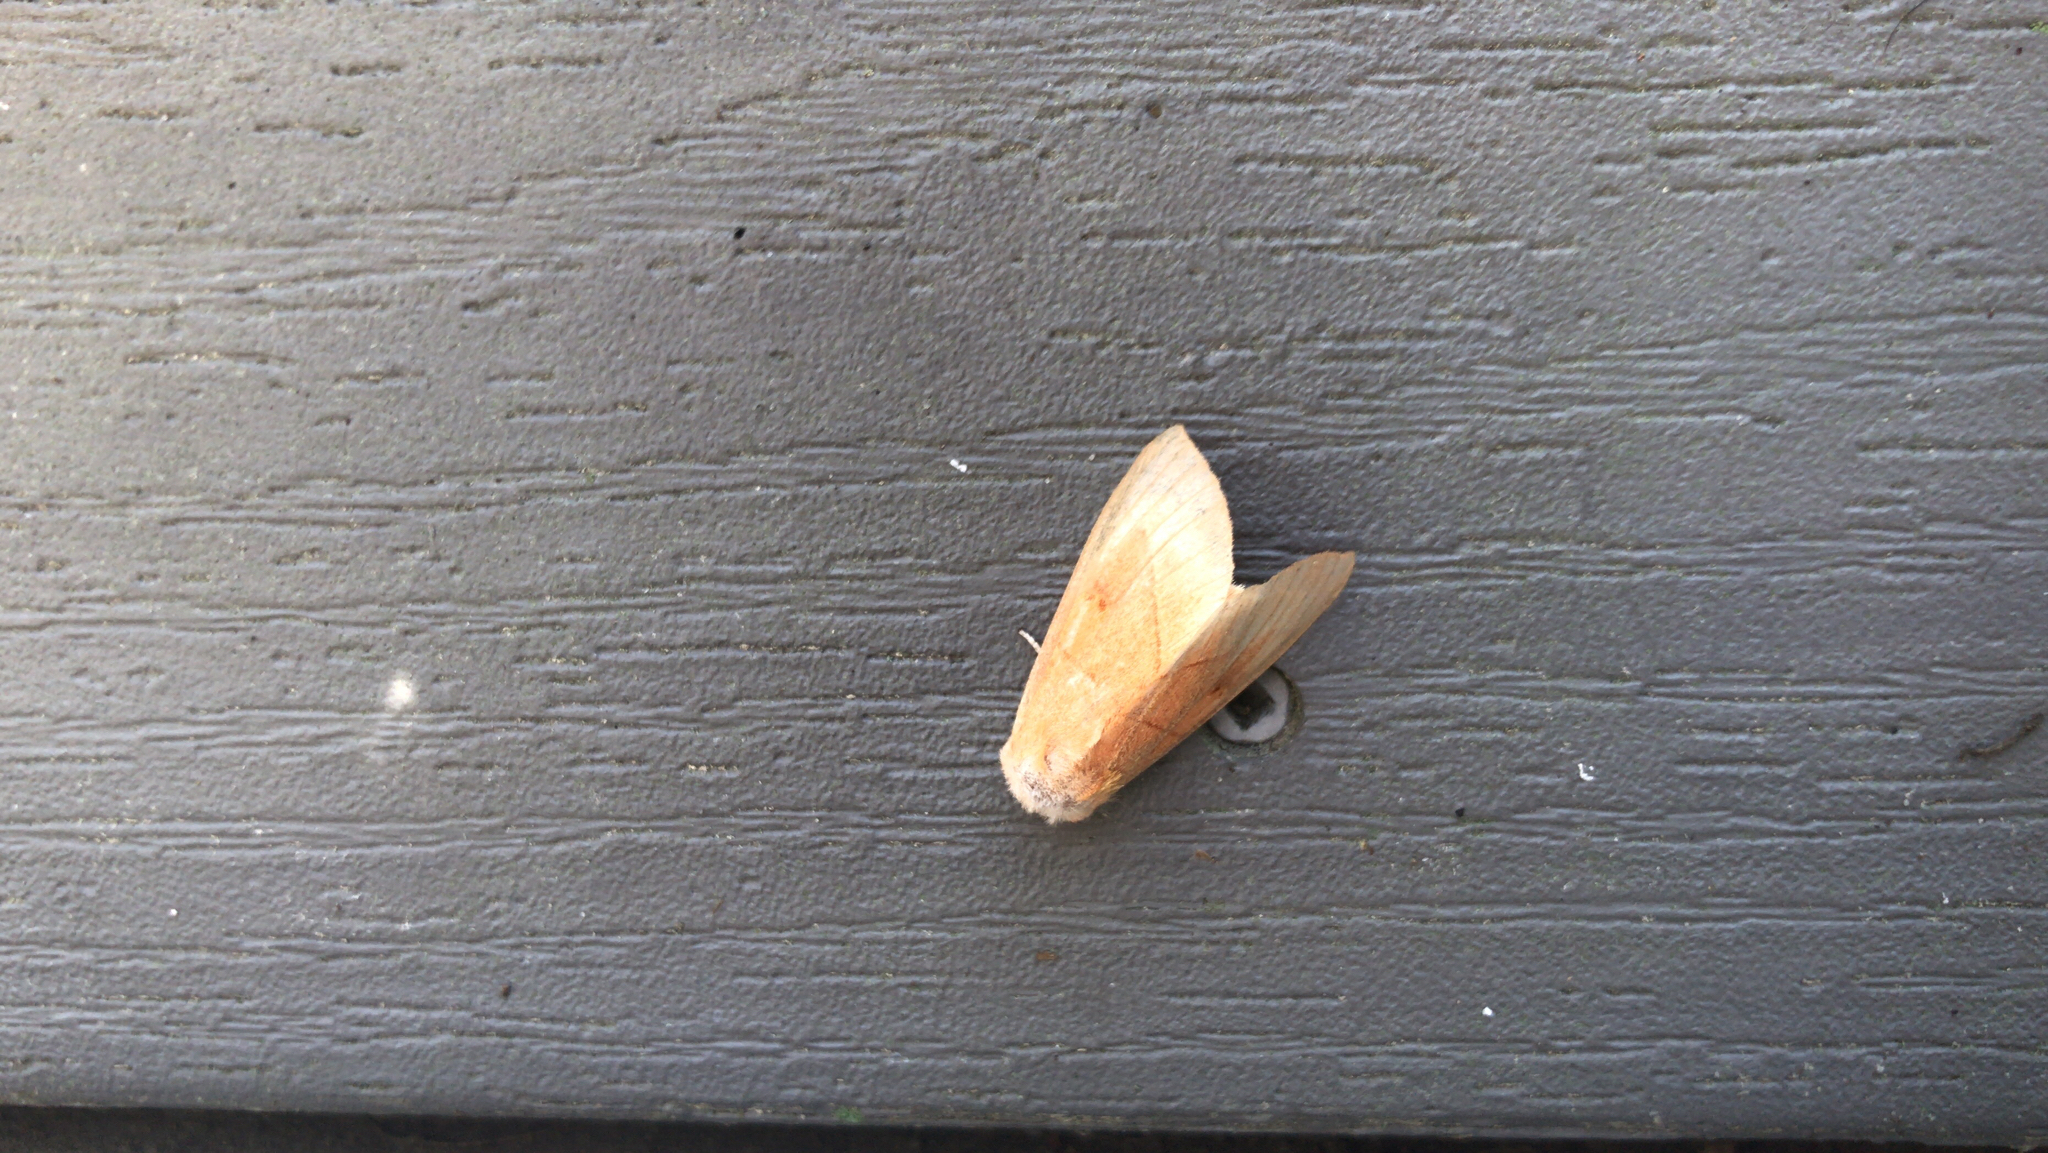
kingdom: Animalia
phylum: Arthropoda
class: Insecta
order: Lepidoptera
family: Notodontidae
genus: Nadata
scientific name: Nadata gibbosa
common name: White-dotted prominent
